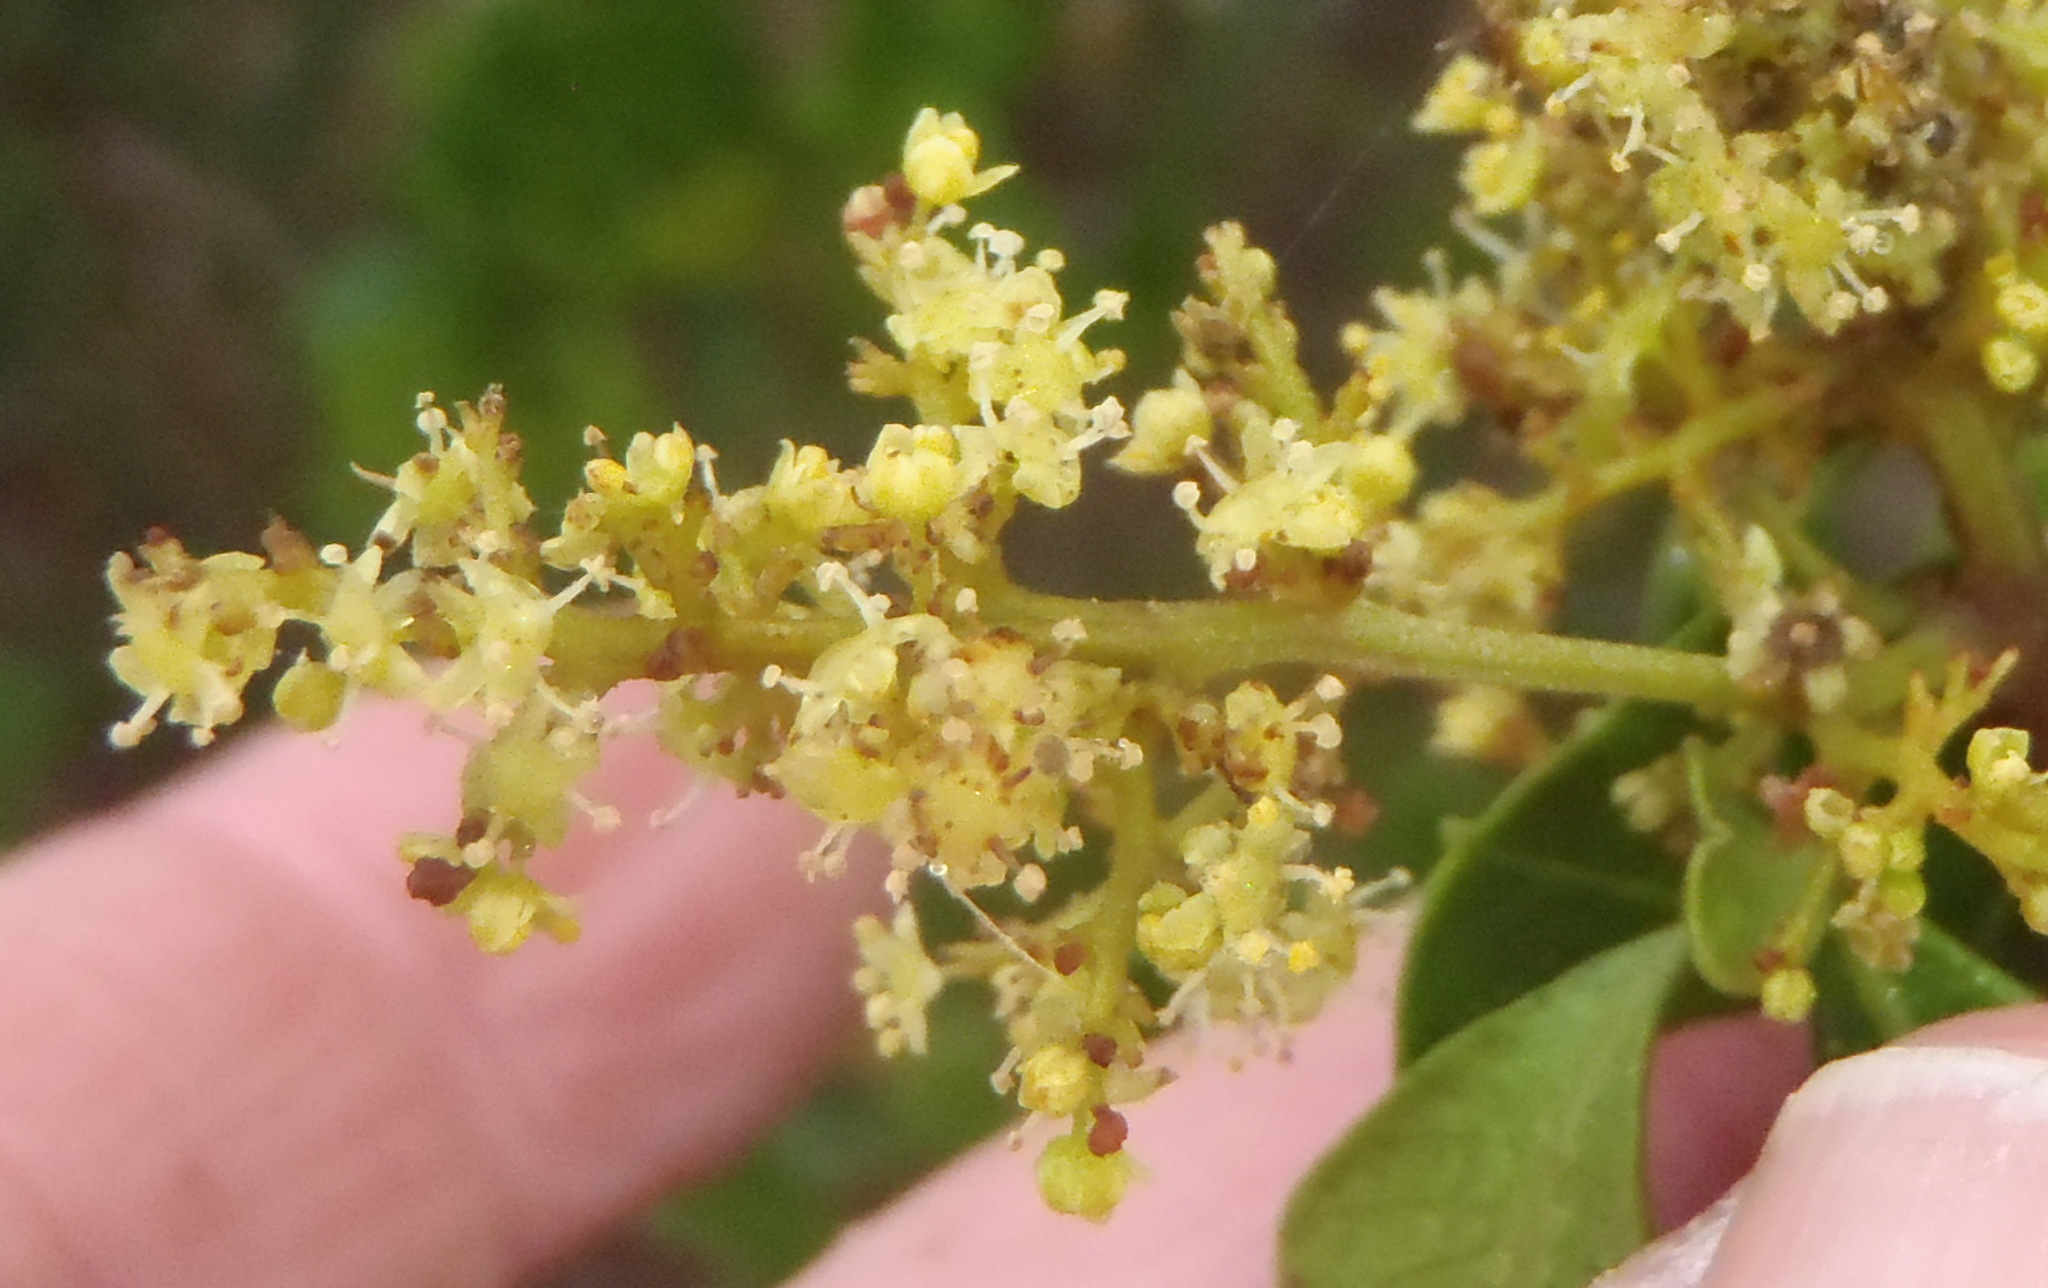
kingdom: Plantae
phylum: Tracheophyta
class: Magnoliopsida
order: Sapindales
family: Anacardiaceae
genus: Searsia
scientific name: Searsia glauca
